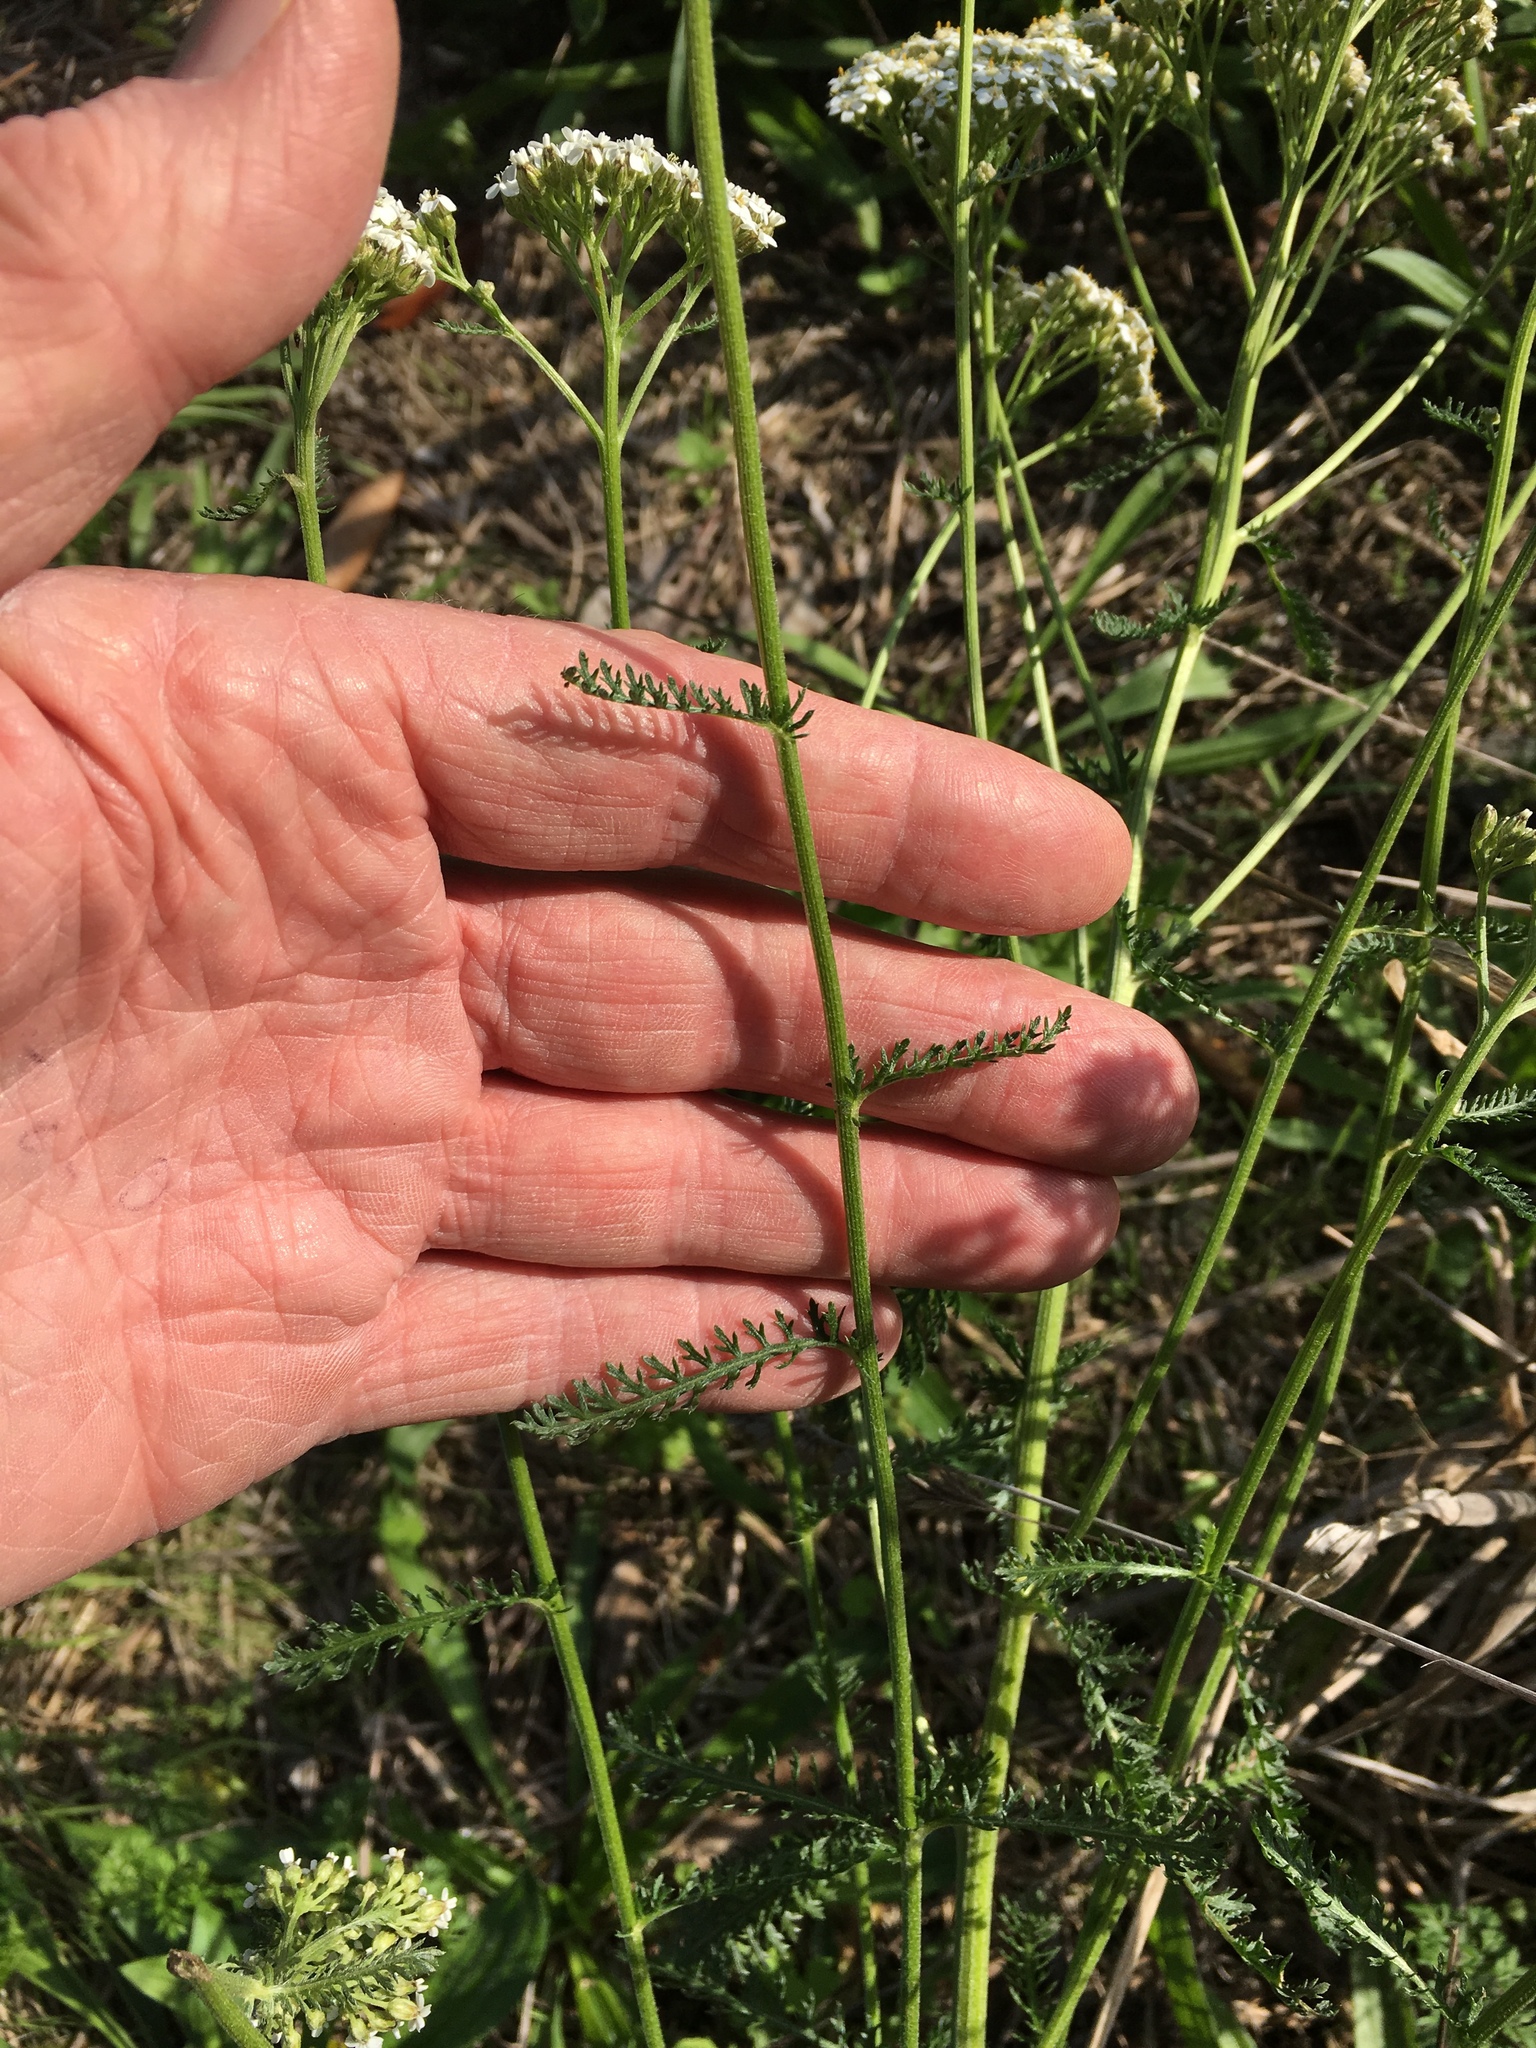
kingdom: Plantae
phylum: Tracheophyta
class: Magnoliopsida
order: Asterales
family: Asteraceae
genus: Achillea
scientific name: Achillea millefolium
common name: Yarrow
